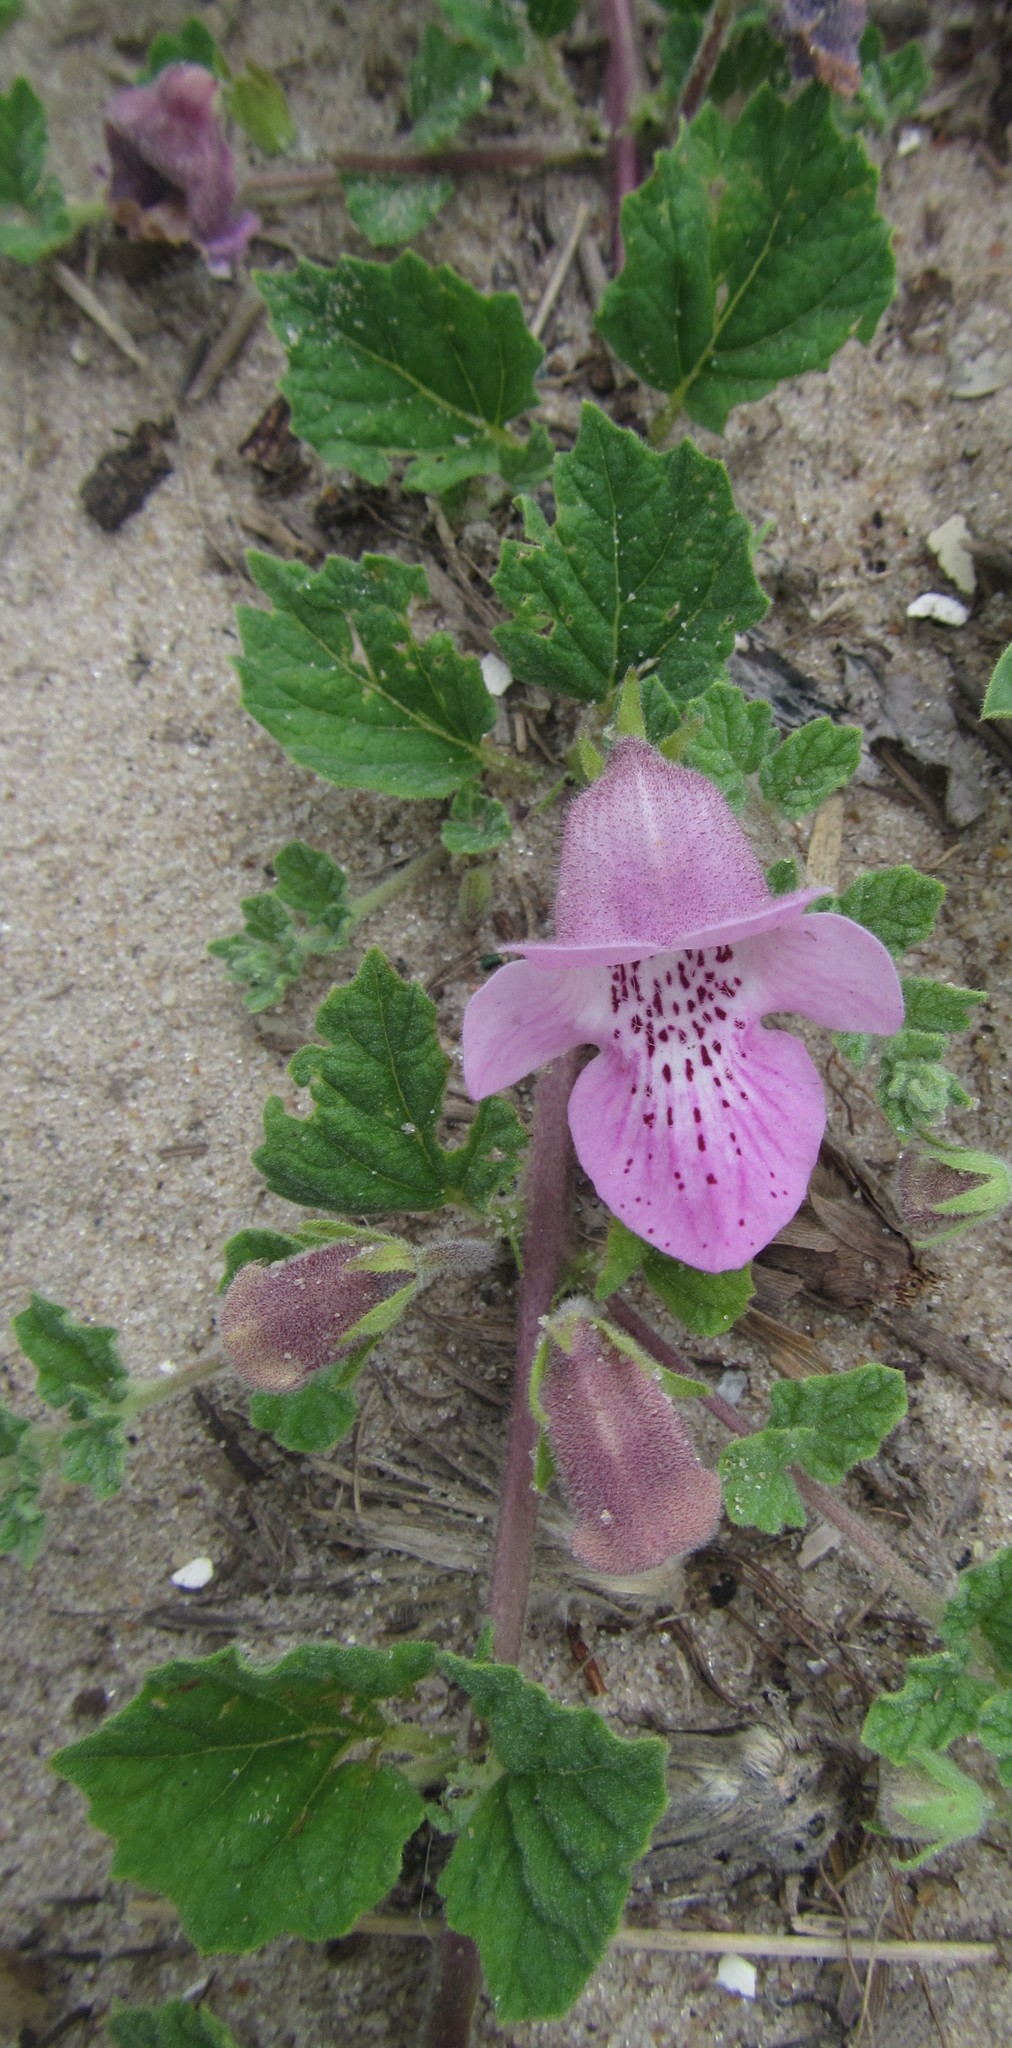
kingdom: Plantae
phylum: Tracheophyta
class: Magnoliopsida
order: Lamiales
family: Pedaliaceae
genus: Dicerocaryum
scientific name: Dicerocaryum eriocarpum
